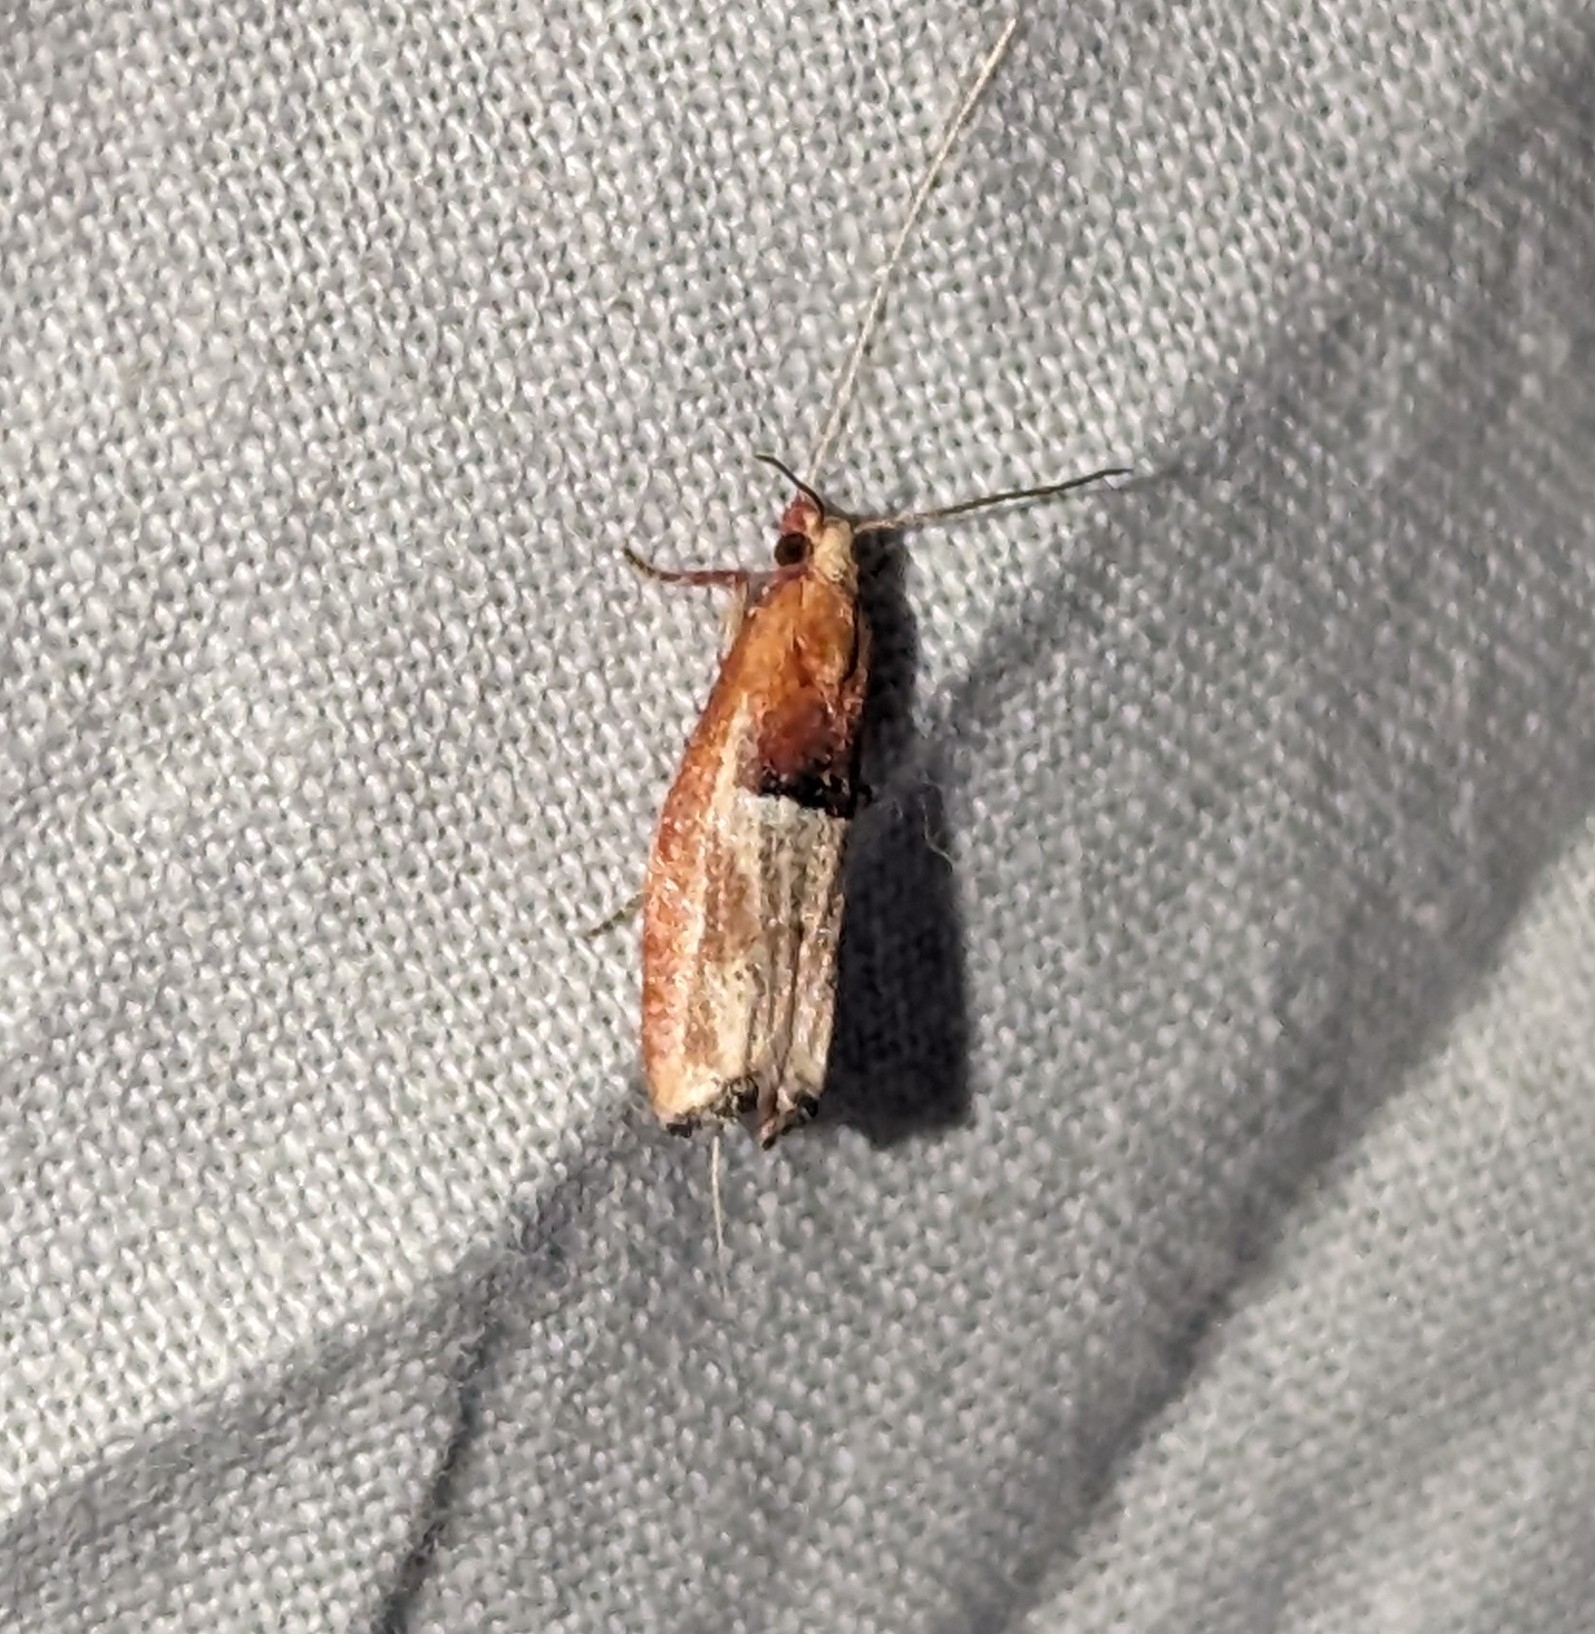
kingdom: Animalia
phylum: Arthropoda
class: Insecta
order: Lepidoptera
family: Tortricidae
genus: Epinotia
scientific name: Epinotia johnsonana
